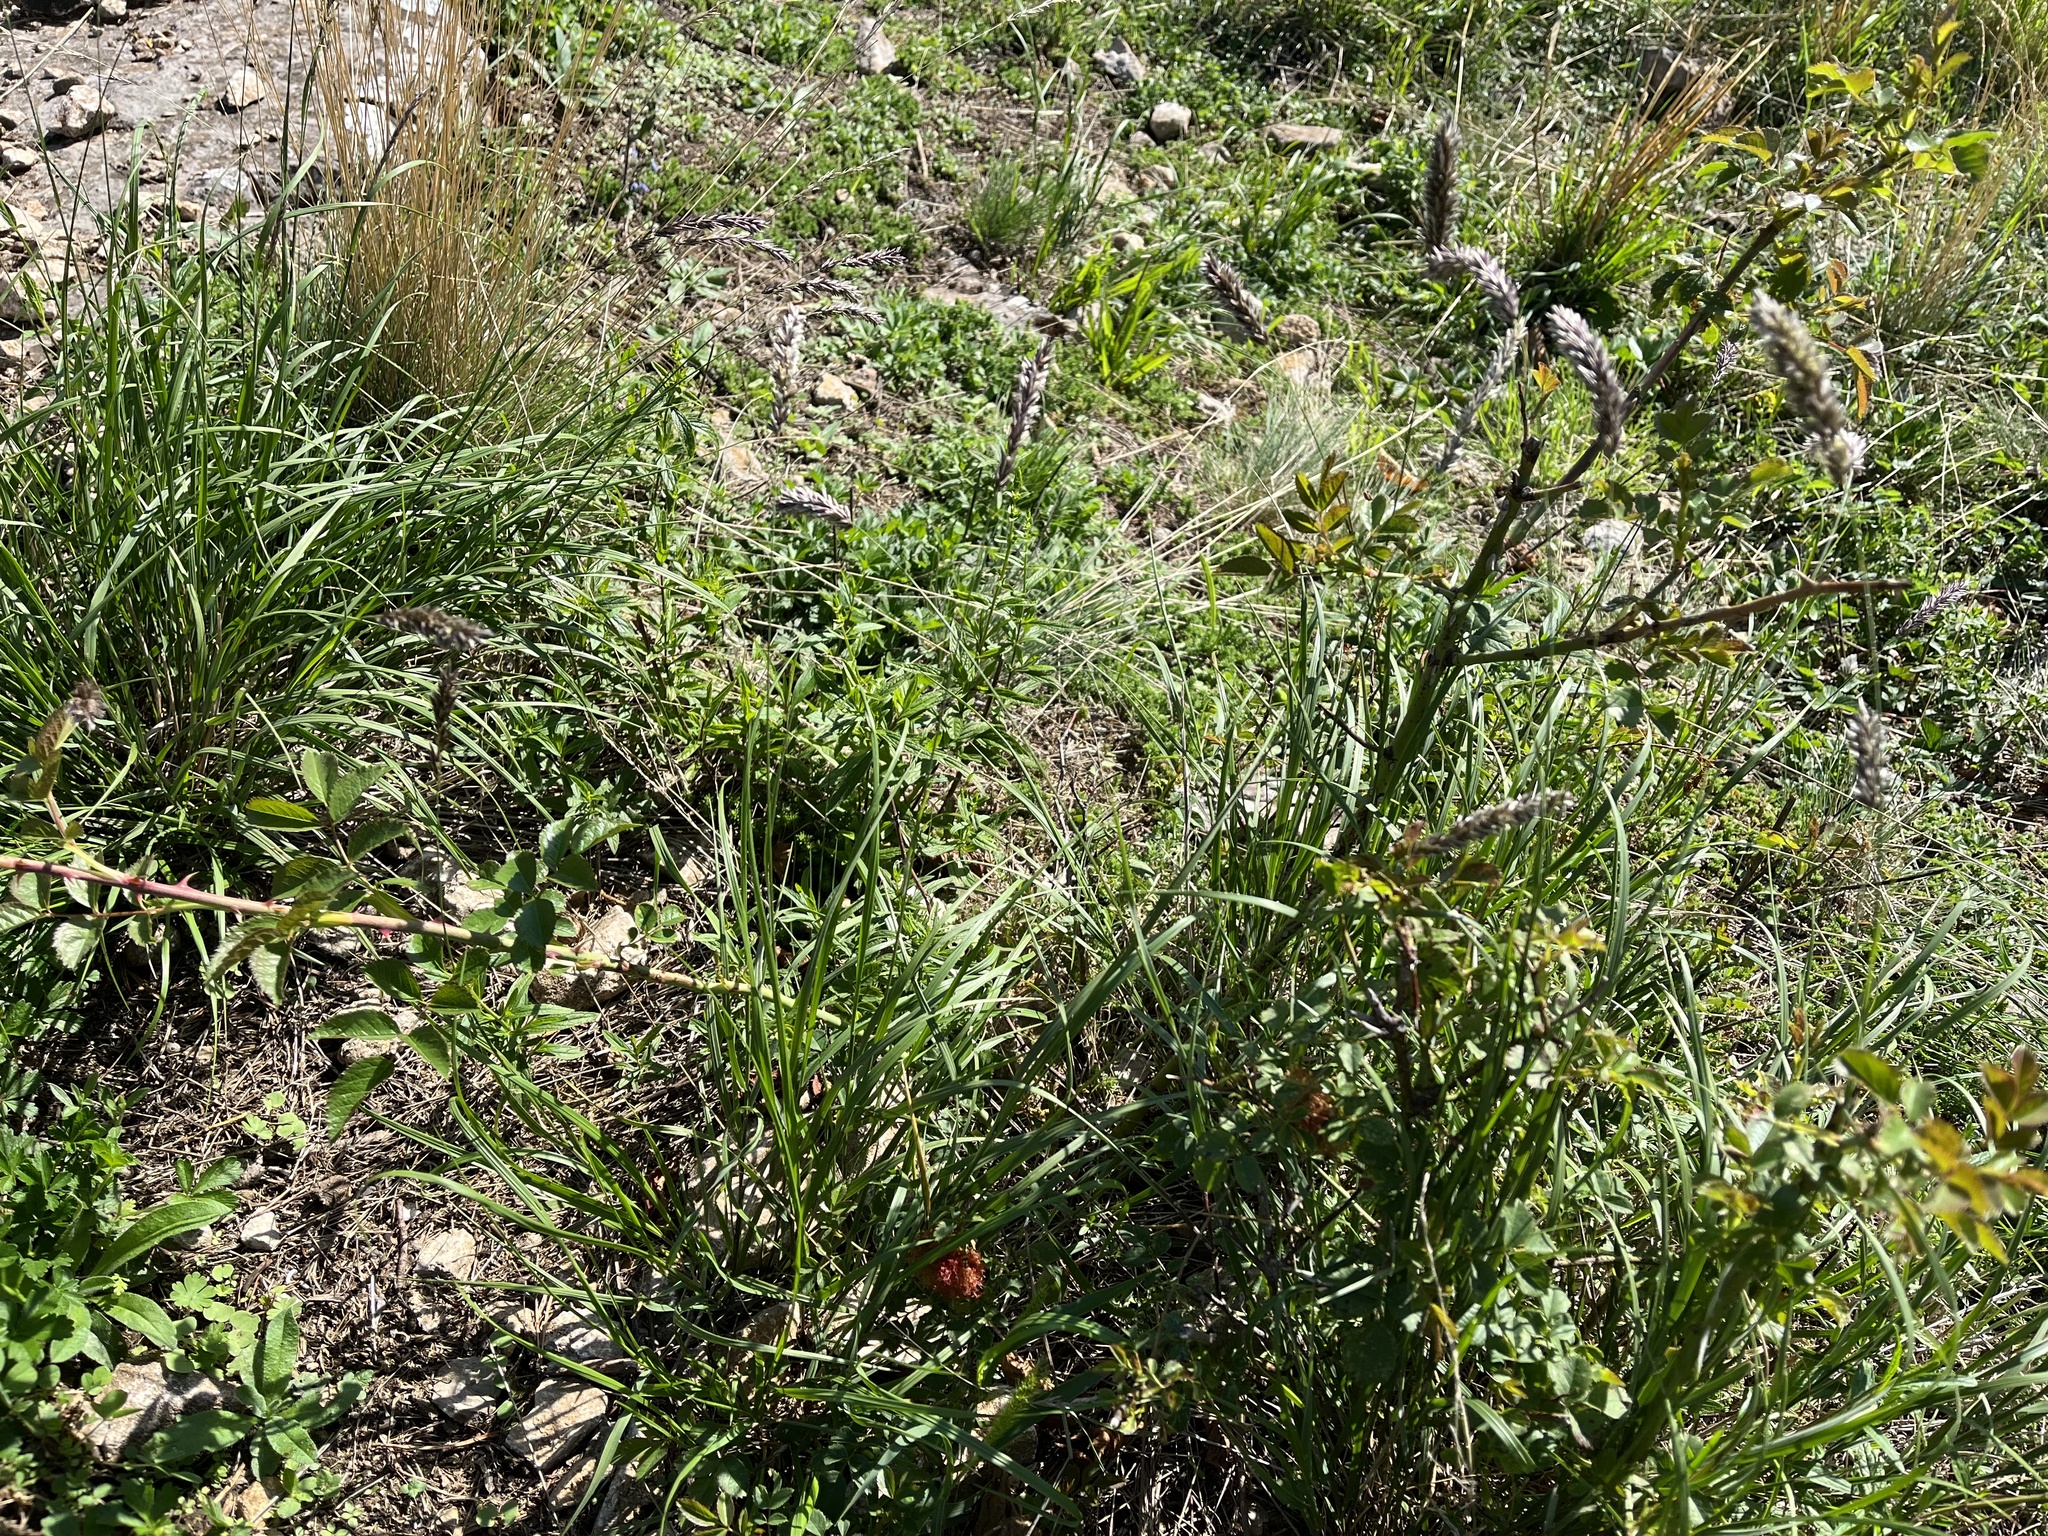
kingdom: Plantae
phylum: Tracheophyta
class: Liliopsida
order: Poales
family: Poaceae
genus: Melica
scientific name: Melica transsilvanica
